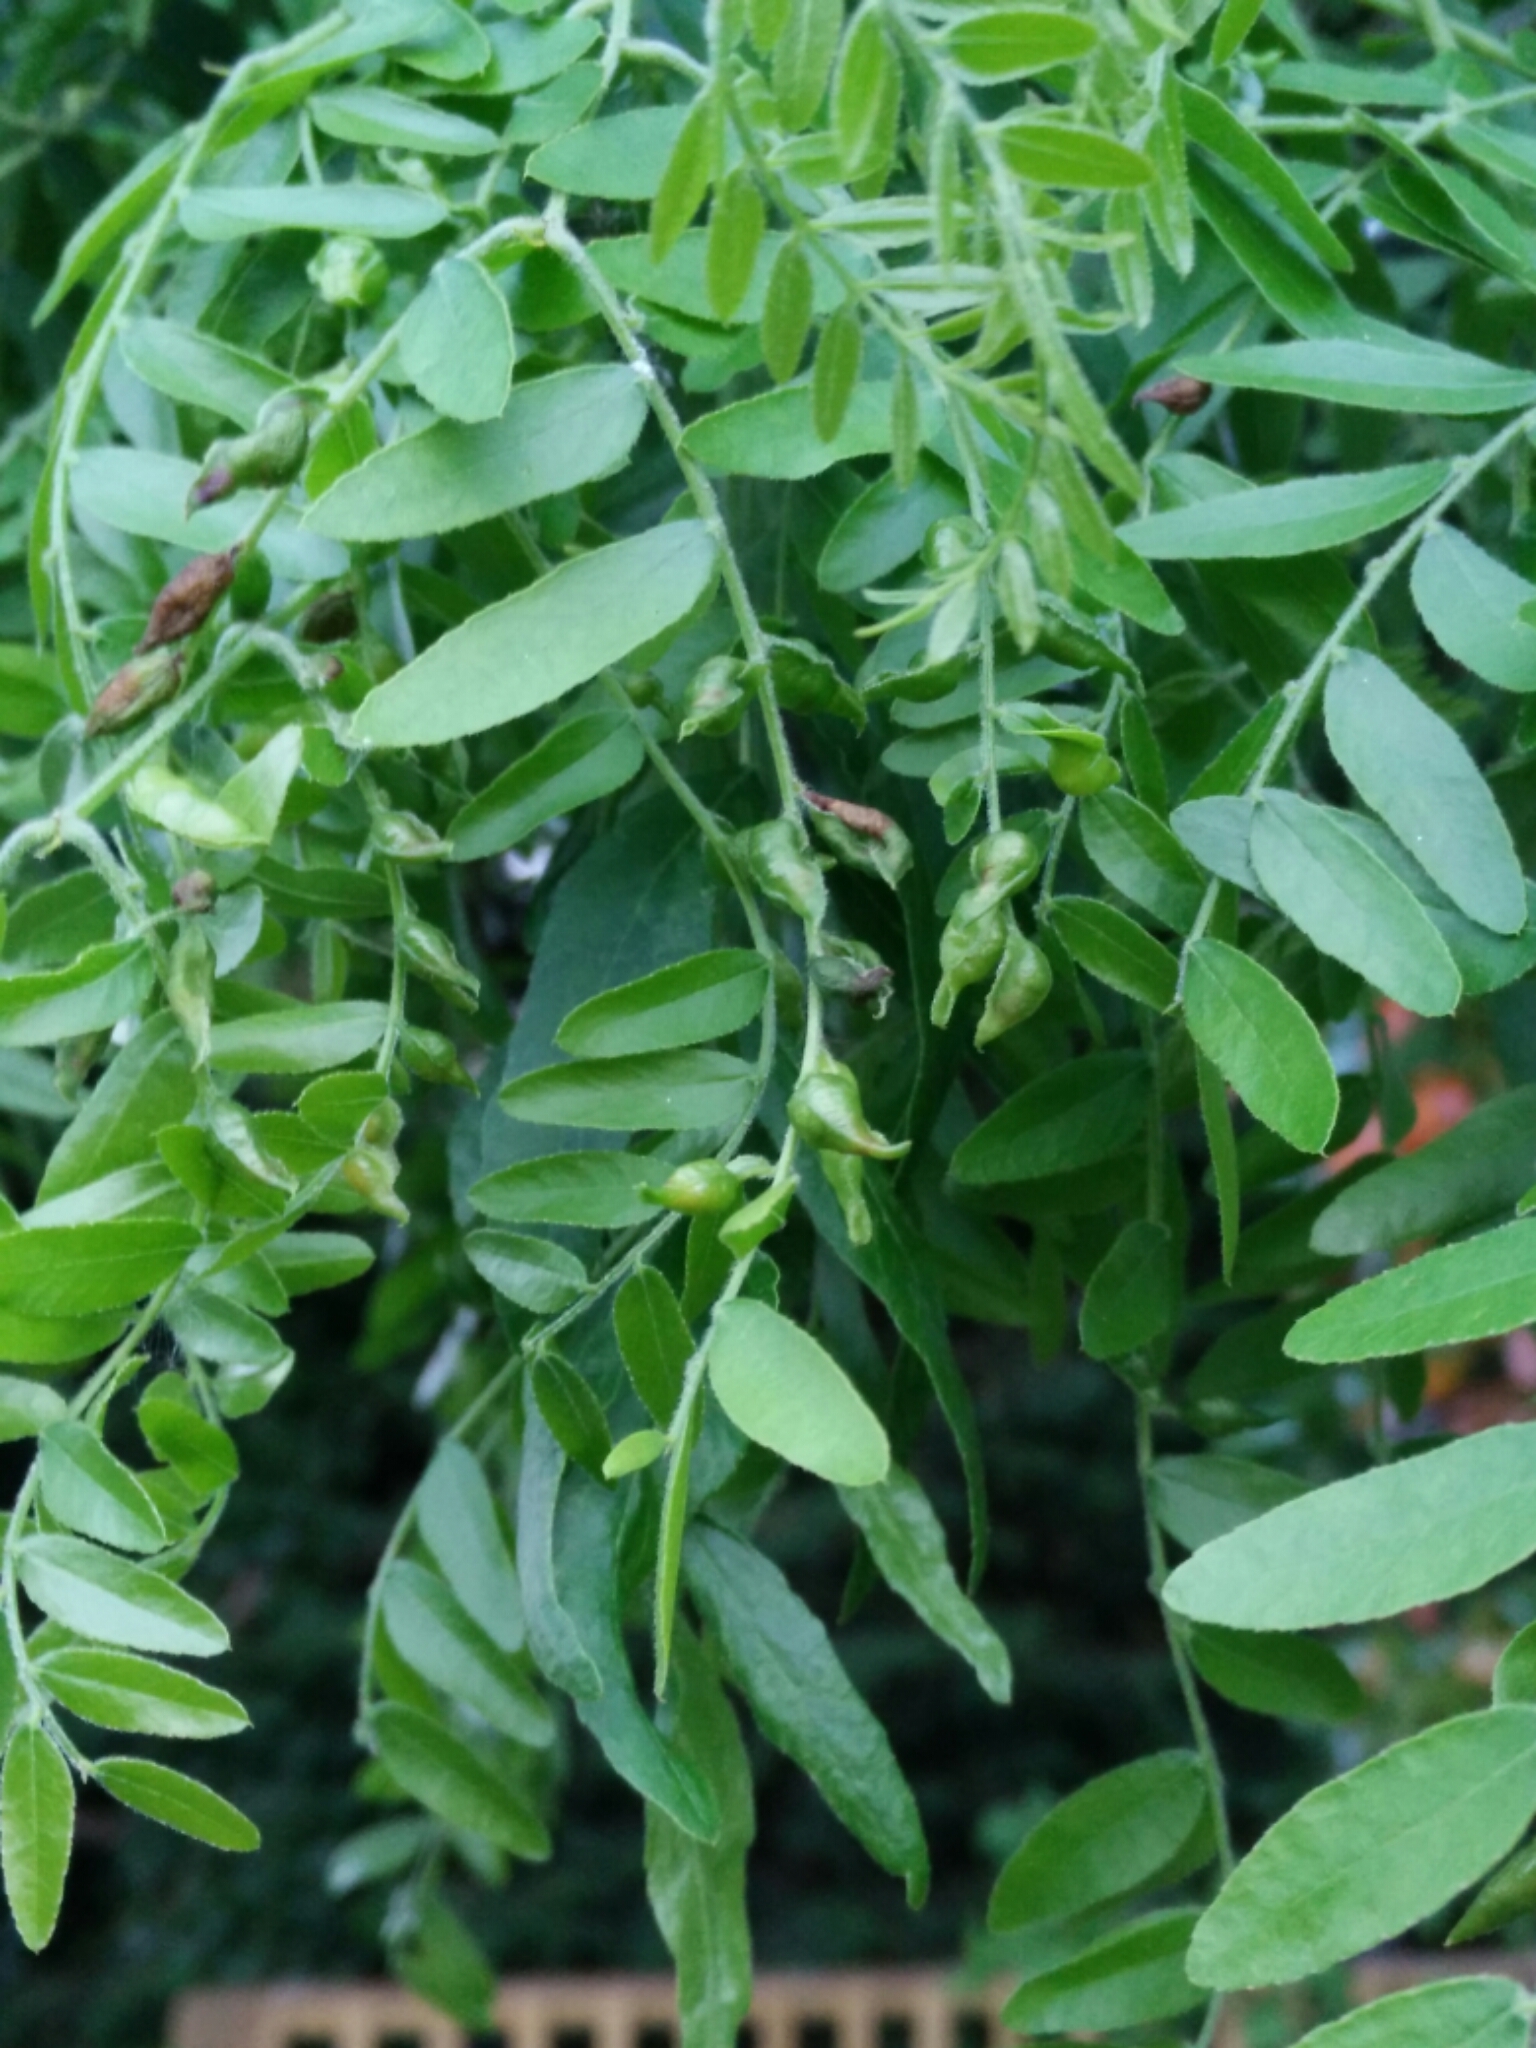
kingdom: Animalia
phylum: Arthropoda
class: Insecta
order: Diptera
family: Cecidomyiidae
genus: Dasineura
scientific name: Dasineura gleditchiae
